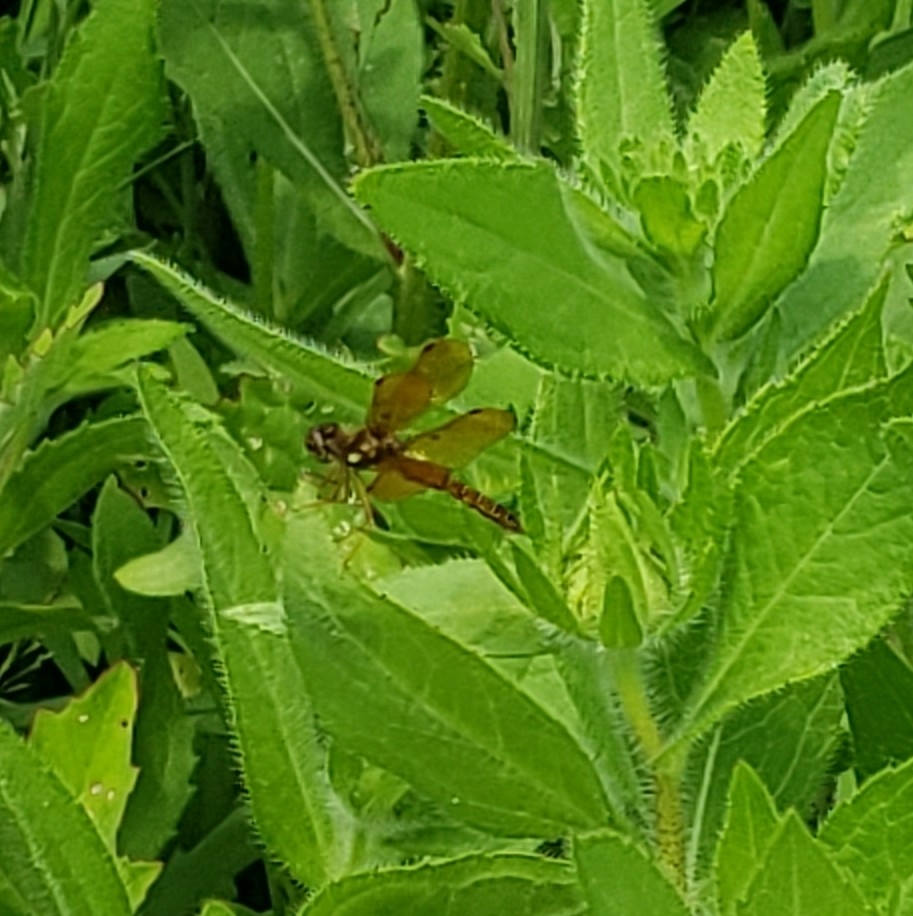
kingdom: Animalia
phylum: Arthropoda
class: Insecta
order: Odonata
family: Libellulidae
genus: Perithemis
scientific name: Perithemis tenera
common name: Eastern amberwing
